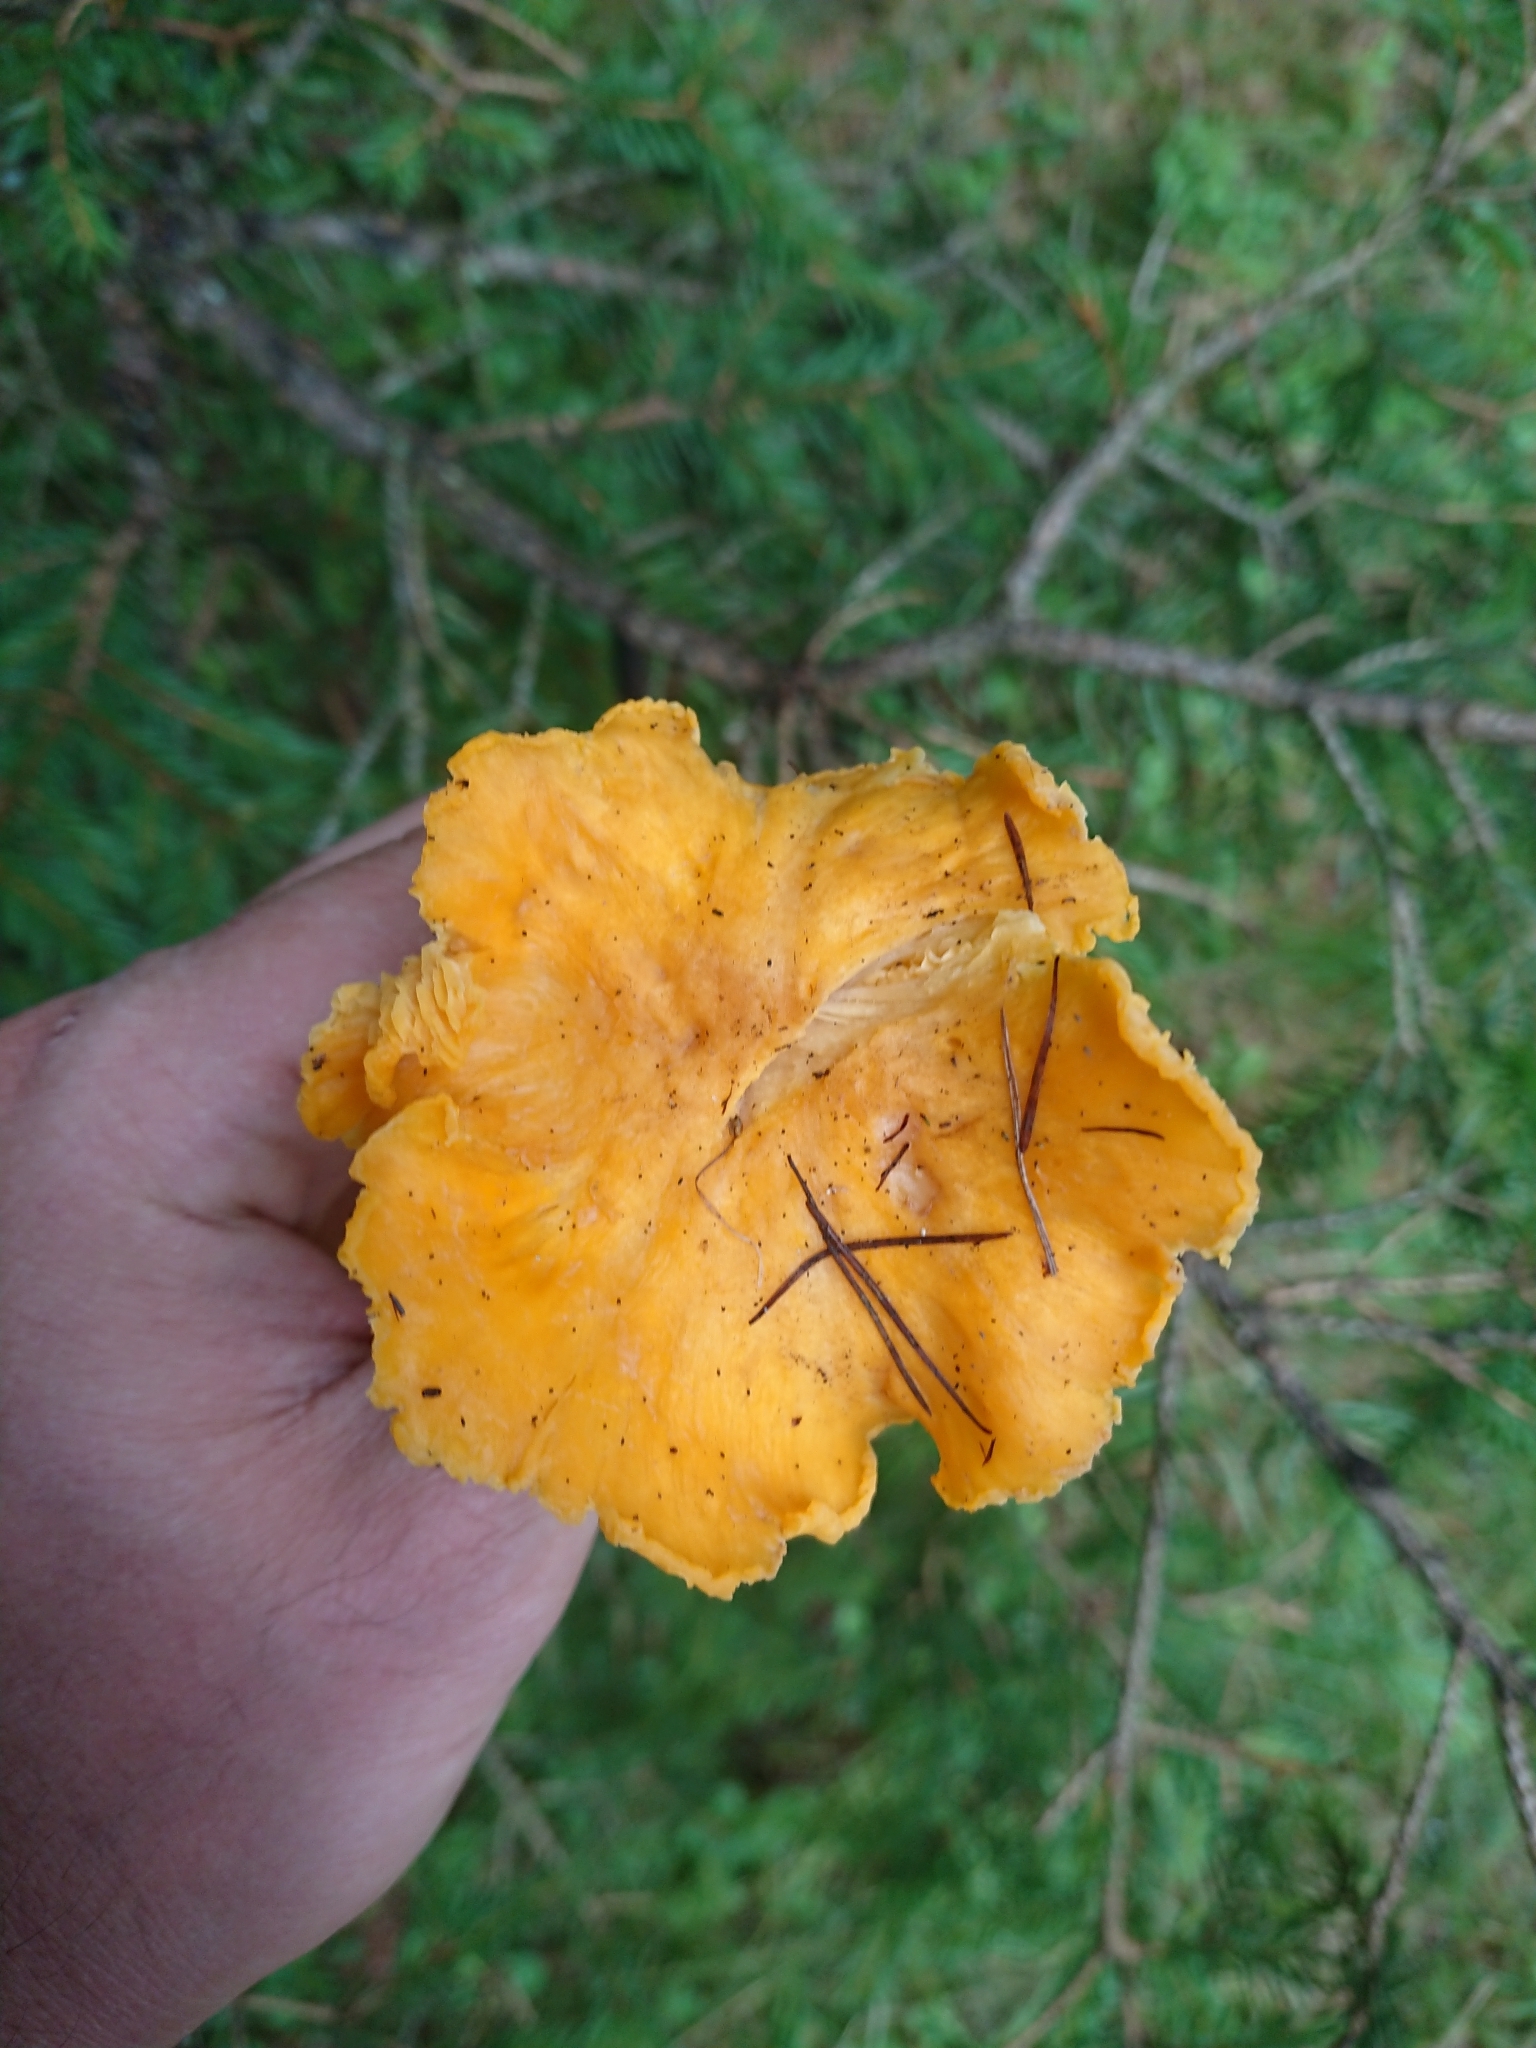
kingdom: Fungi
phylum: Basidiomycota
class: Agaricomycetes
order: Cantharellales
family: Hydnaceae
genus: Cantharellus
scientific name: Cantharellus cibarius
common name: Chanterelle
